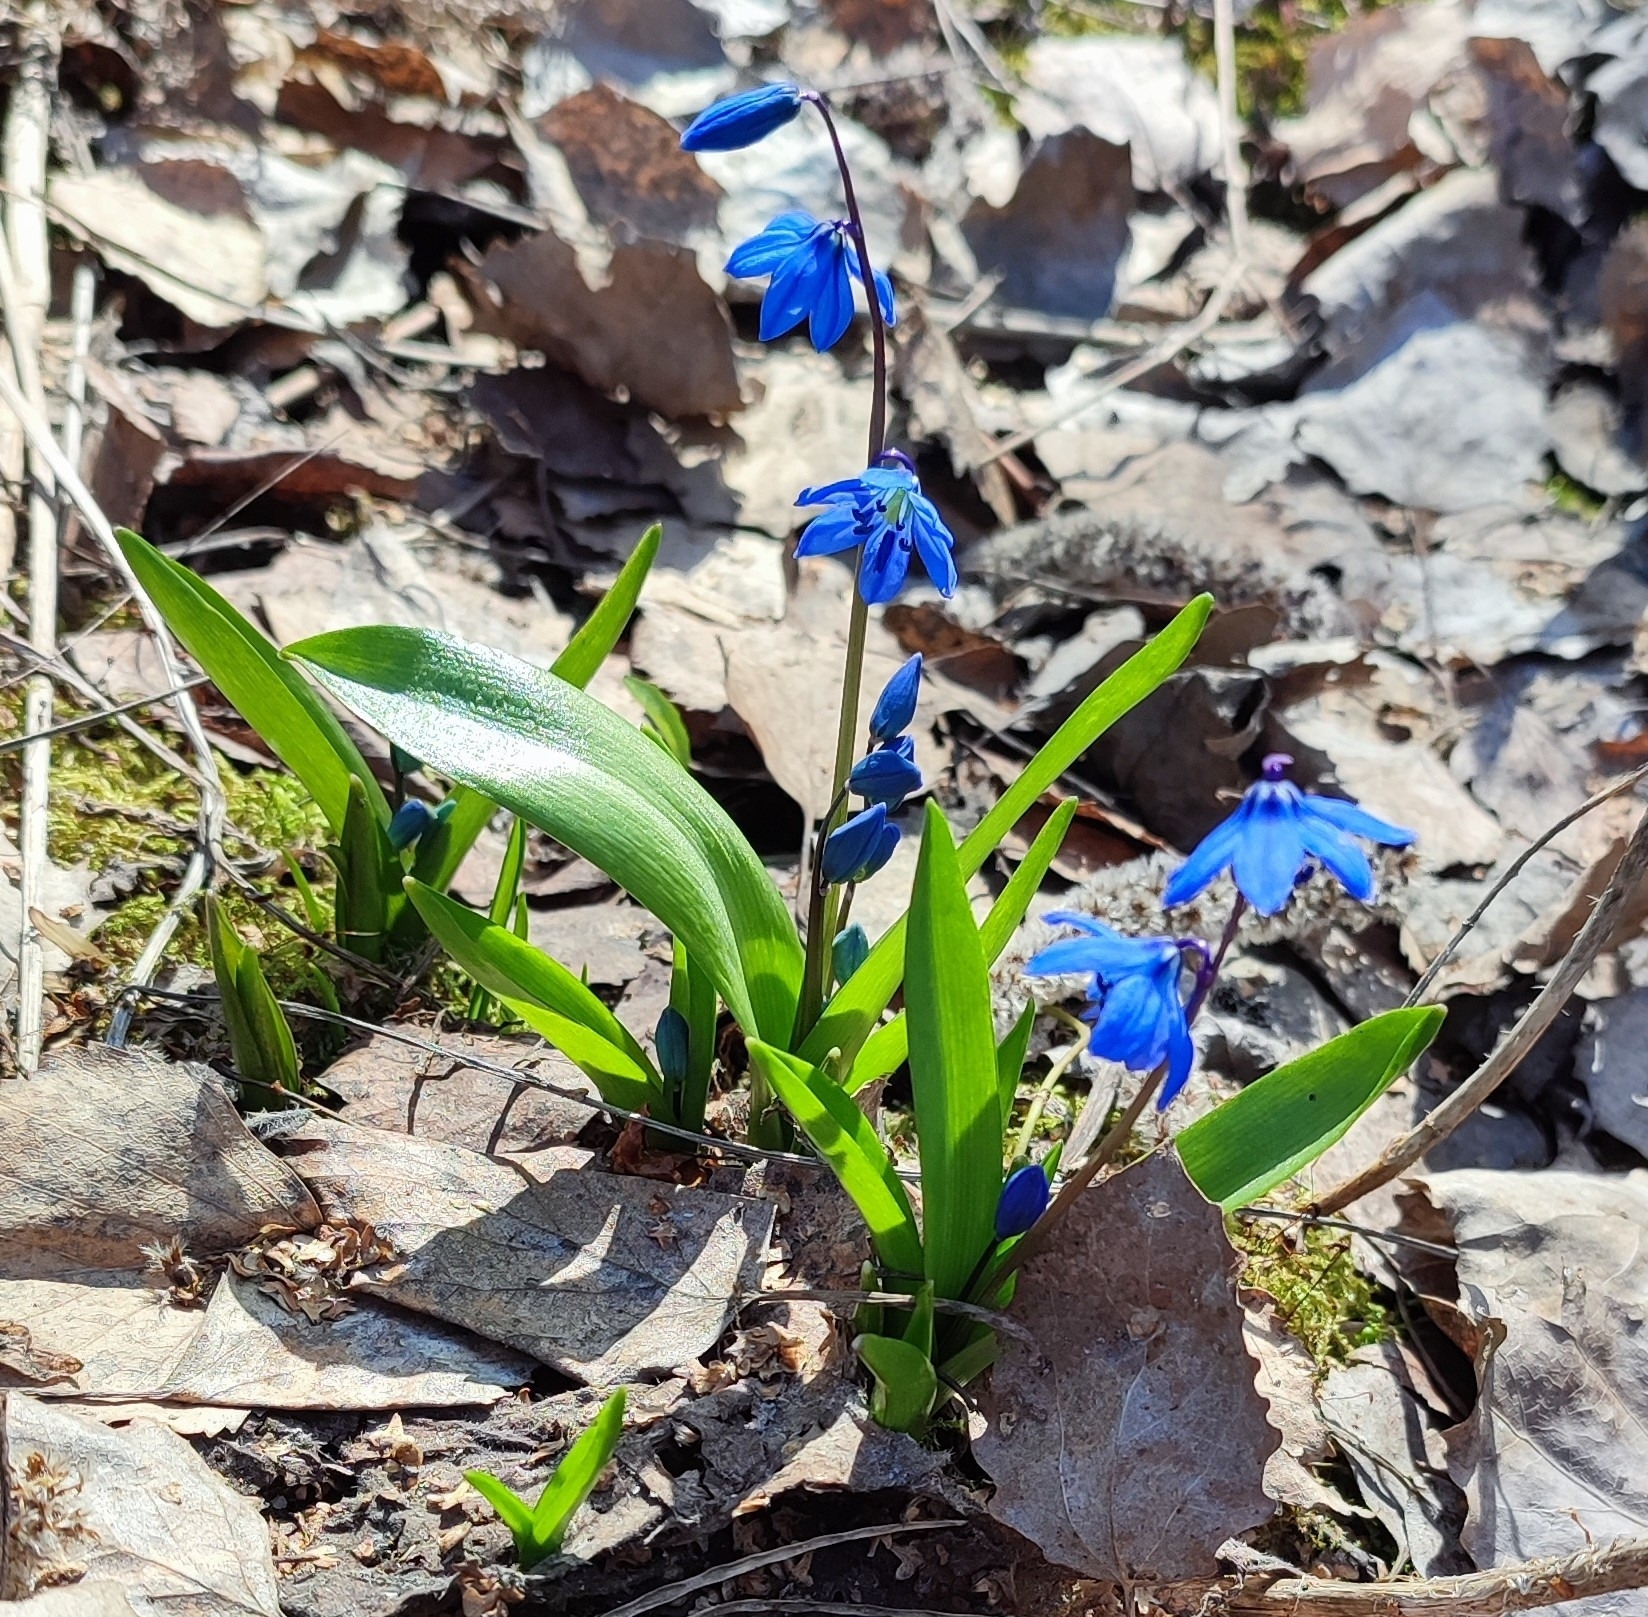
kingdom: Plantae
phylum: Tracheophyta
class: Liliopsida
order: Asparagales
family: Asparagaceae
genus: Scilla
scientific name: Scilla siberica
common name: Siberian squill
